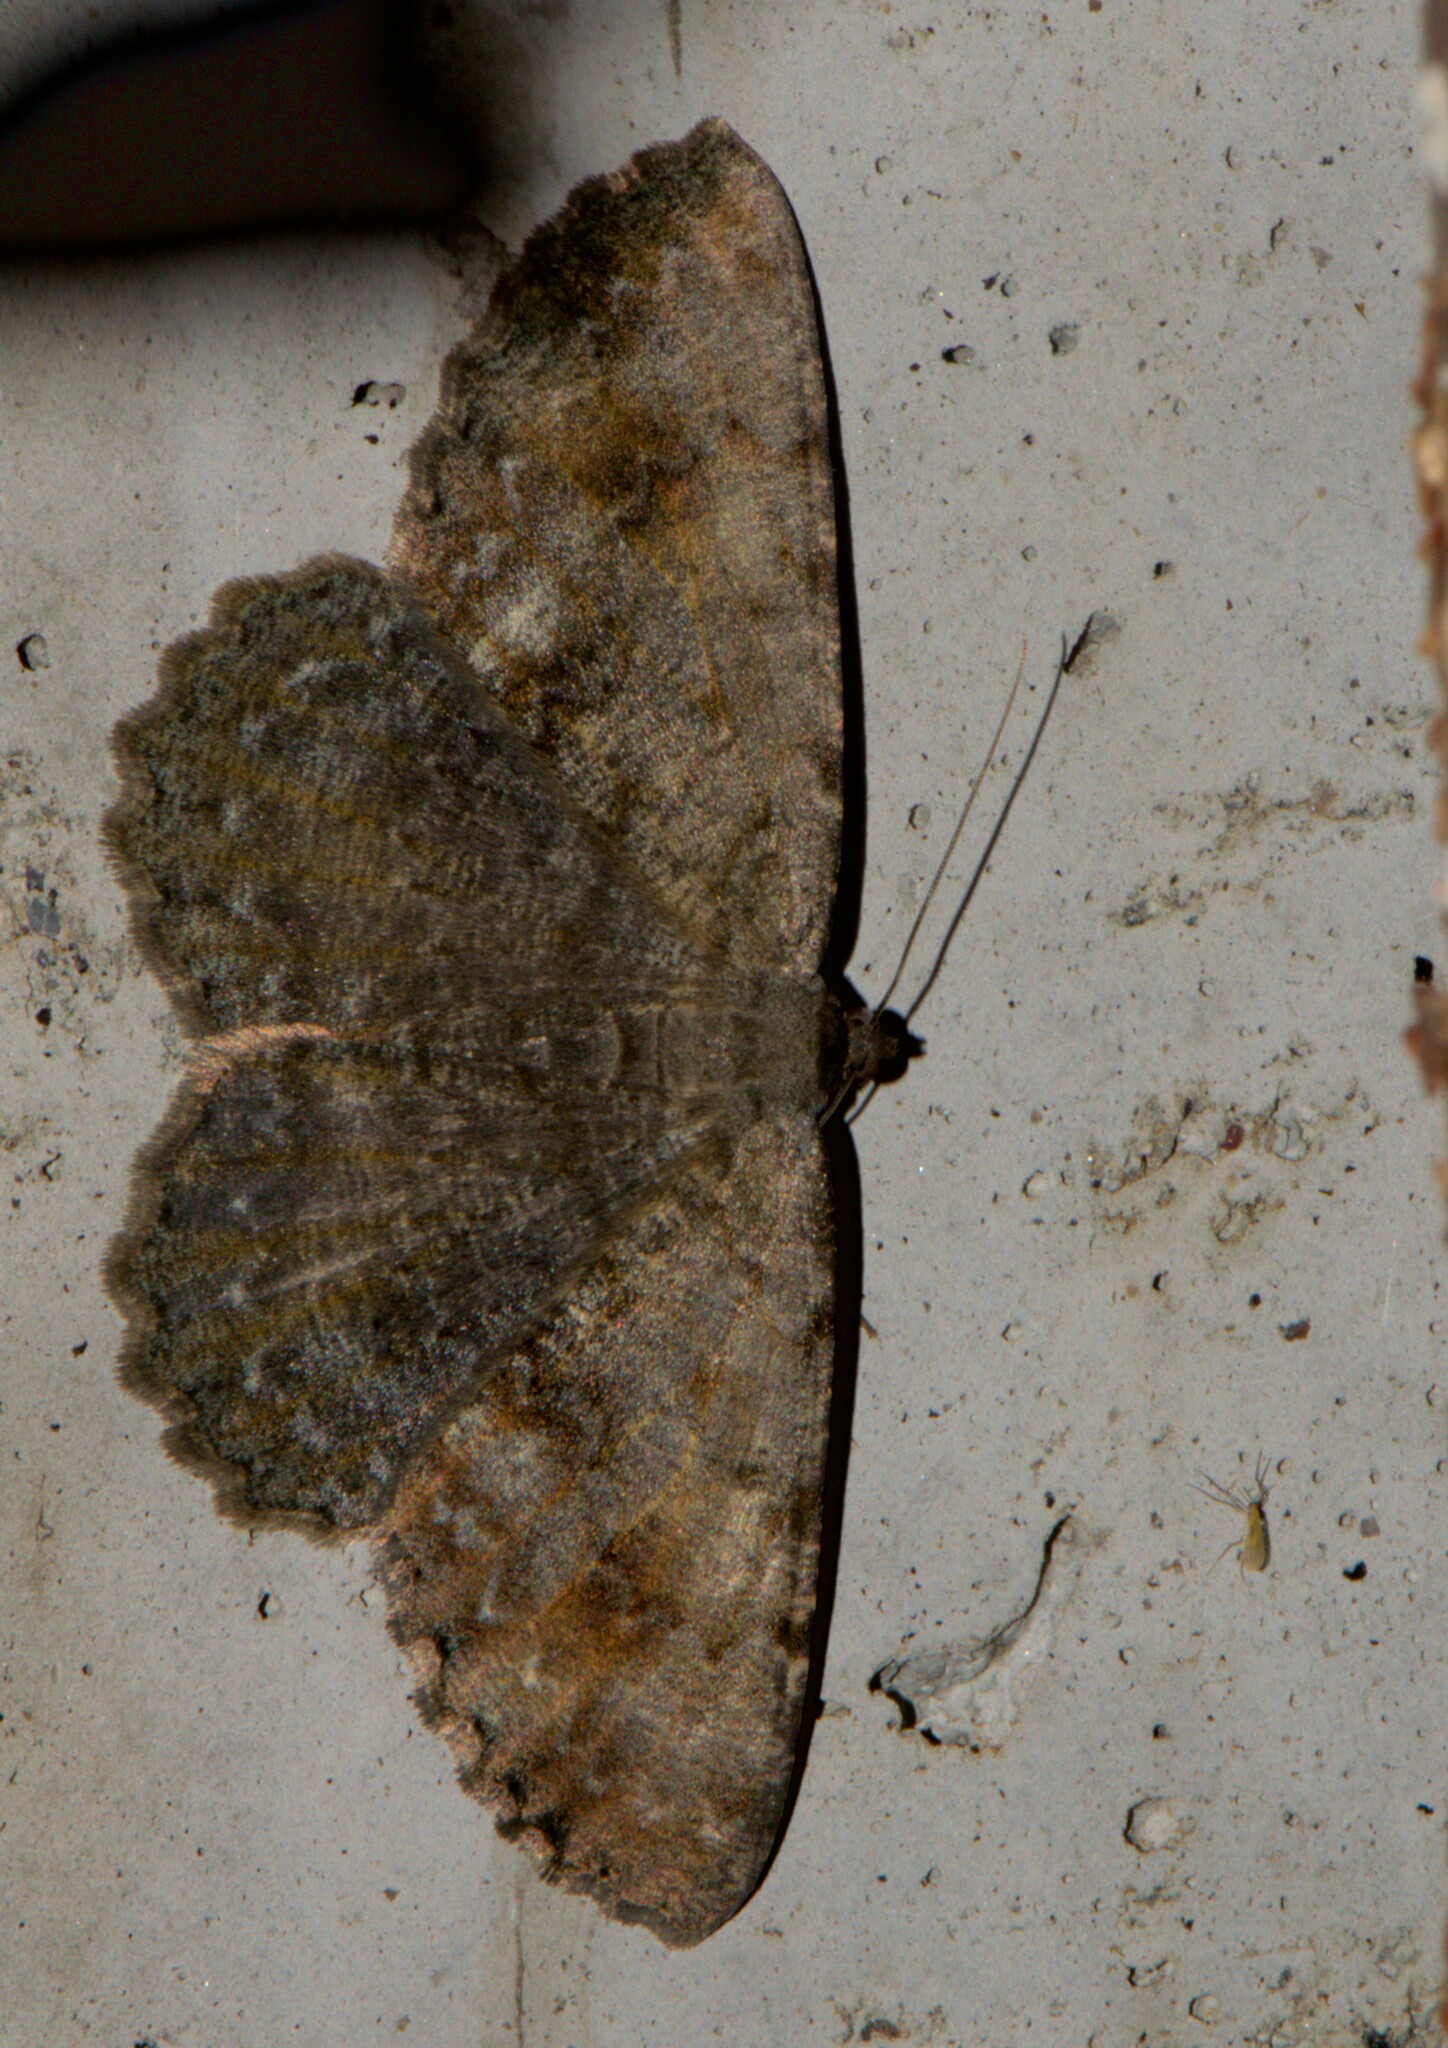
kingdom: Animalia
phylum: Arthropoda
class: Insecta
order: Lepidoptera
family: Geometridae
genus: Gnophos
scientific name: Gnophos accipitraria
